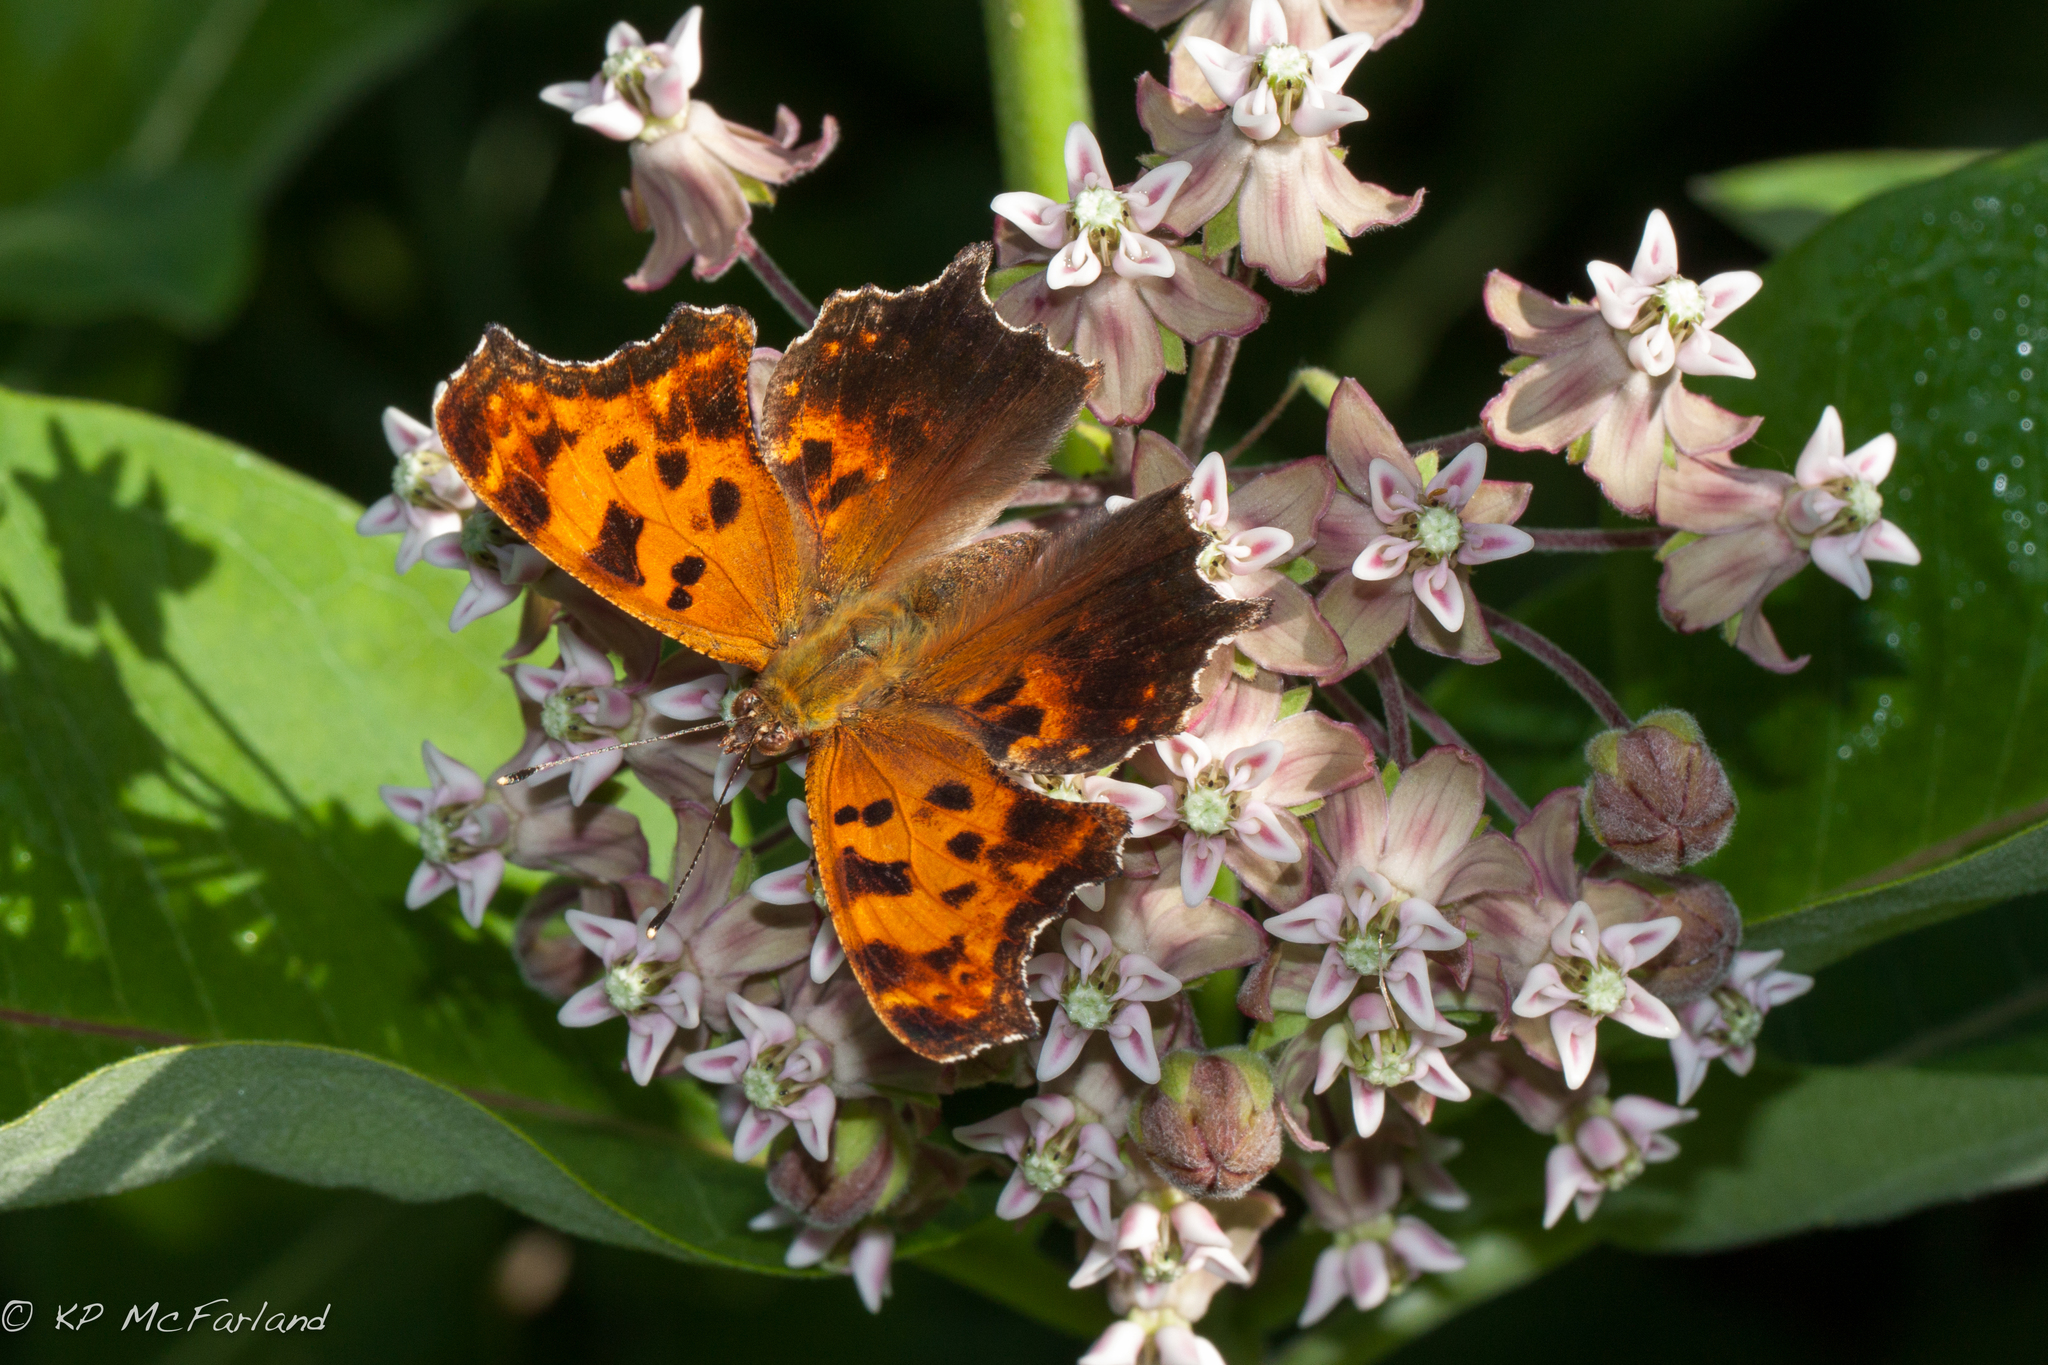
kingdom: Animalia
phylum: Arthropoda
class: Insecta
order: Lepidoptera
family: Nymphalidae
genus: Polygonia
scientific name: Polygonia comma
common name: Eastern comma
